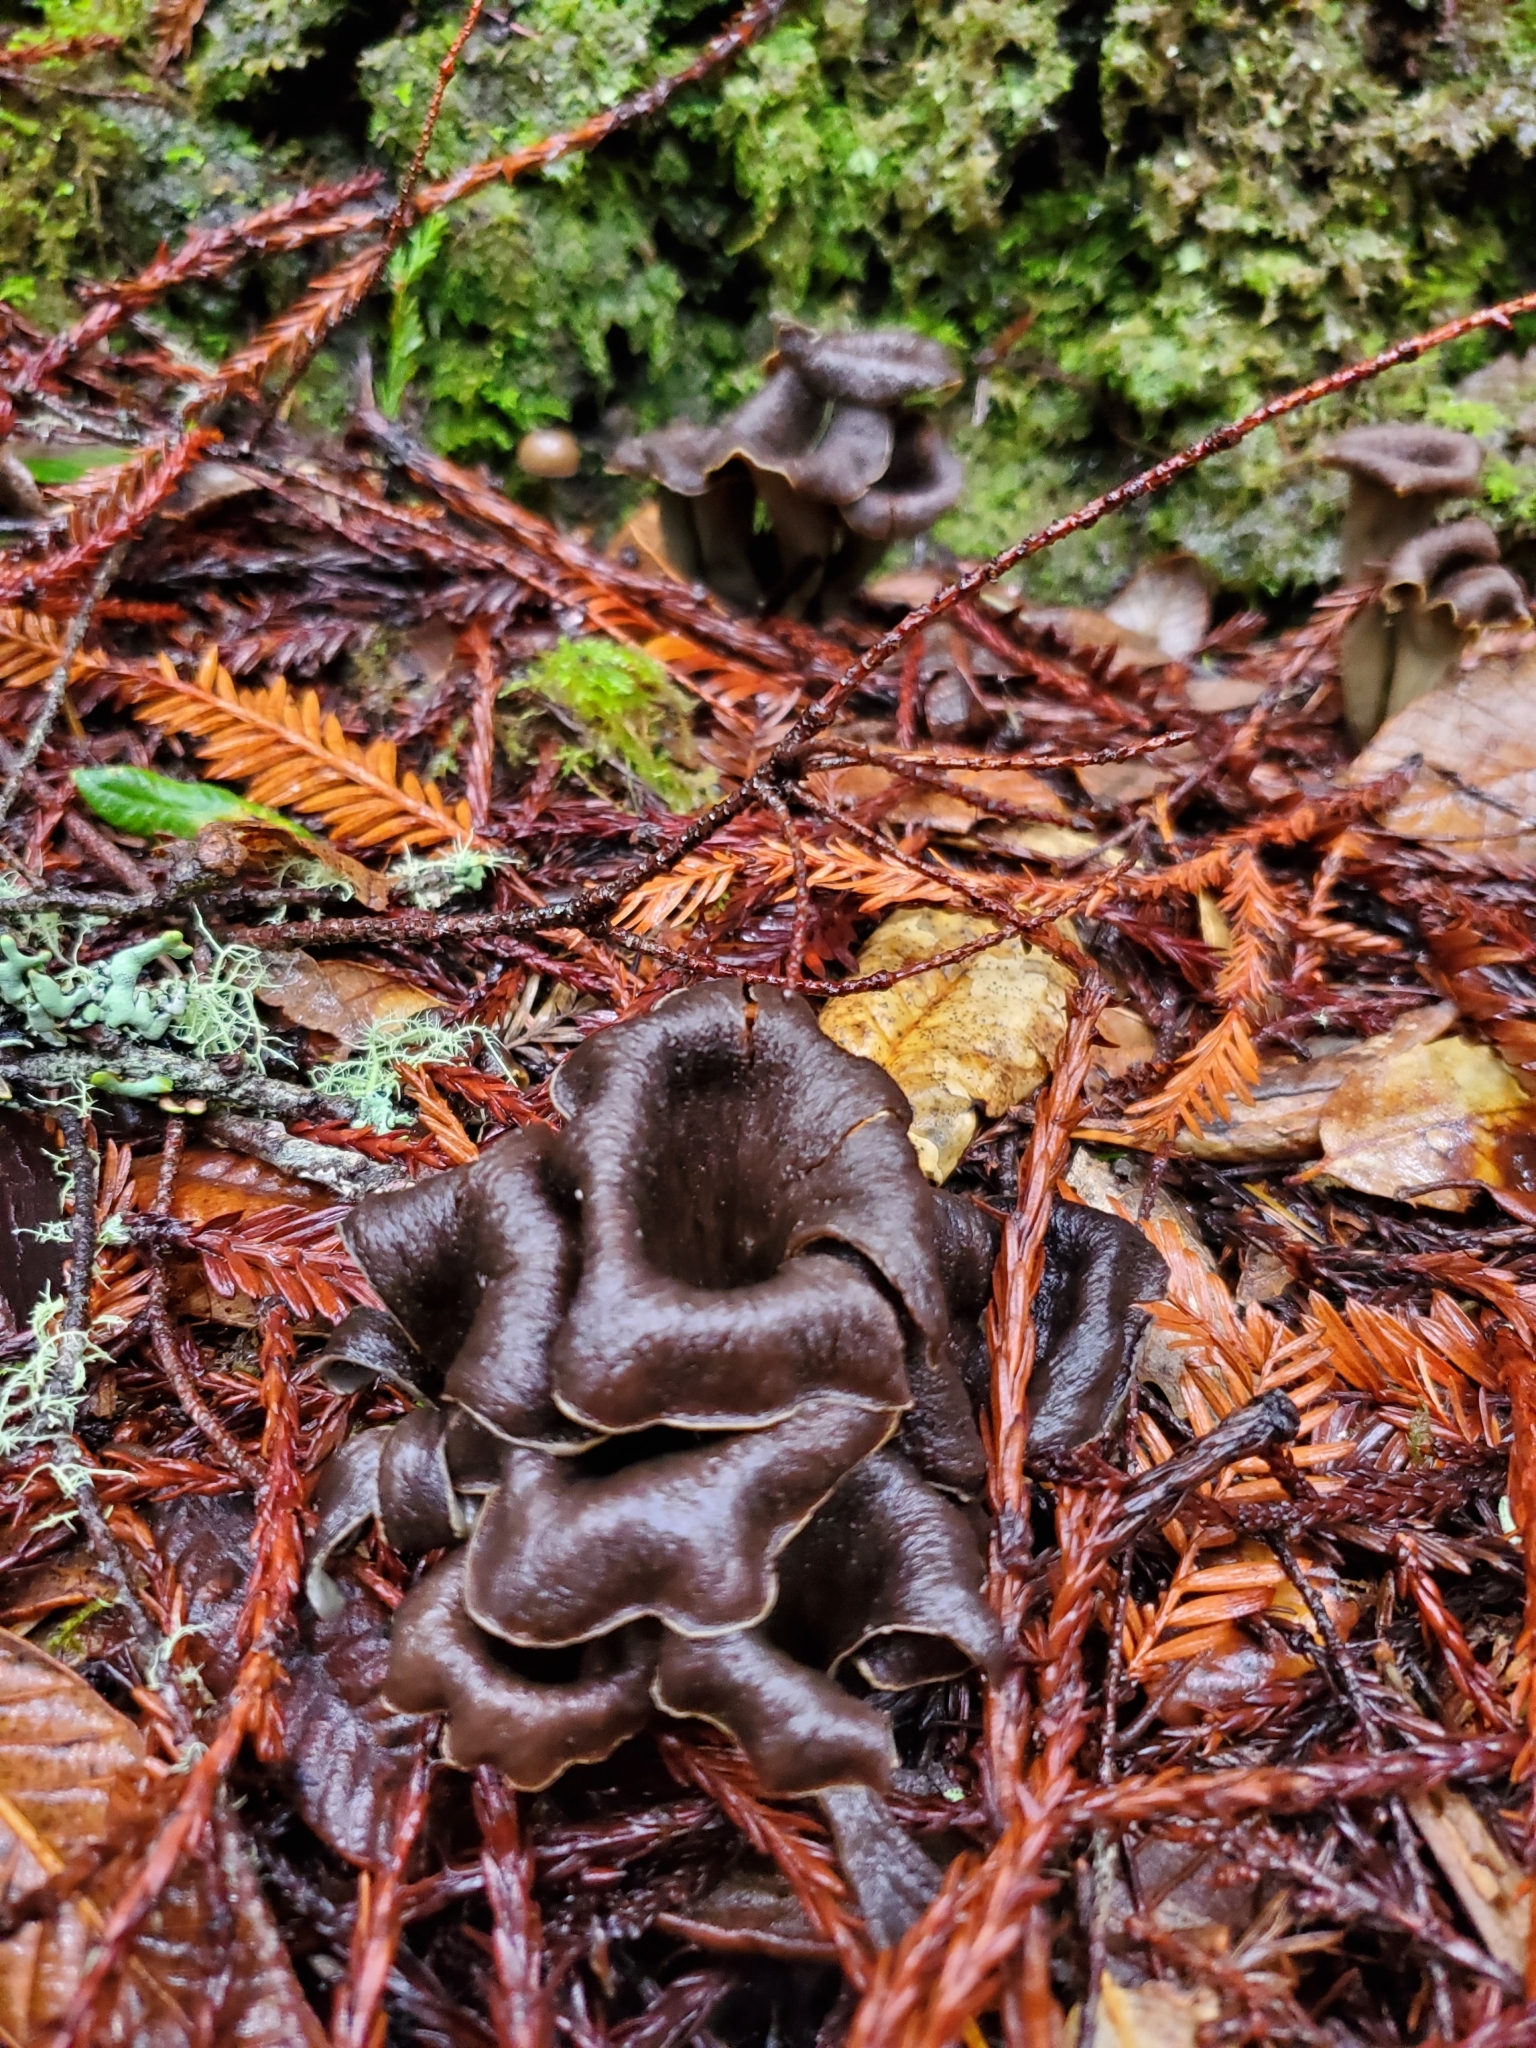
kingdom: Fungi
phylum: Basidiomycota
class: Agaricomycetes
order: Cantharellales
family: Hydnaceae
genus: Craterellus
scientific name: Craterellus calicornucopioides
